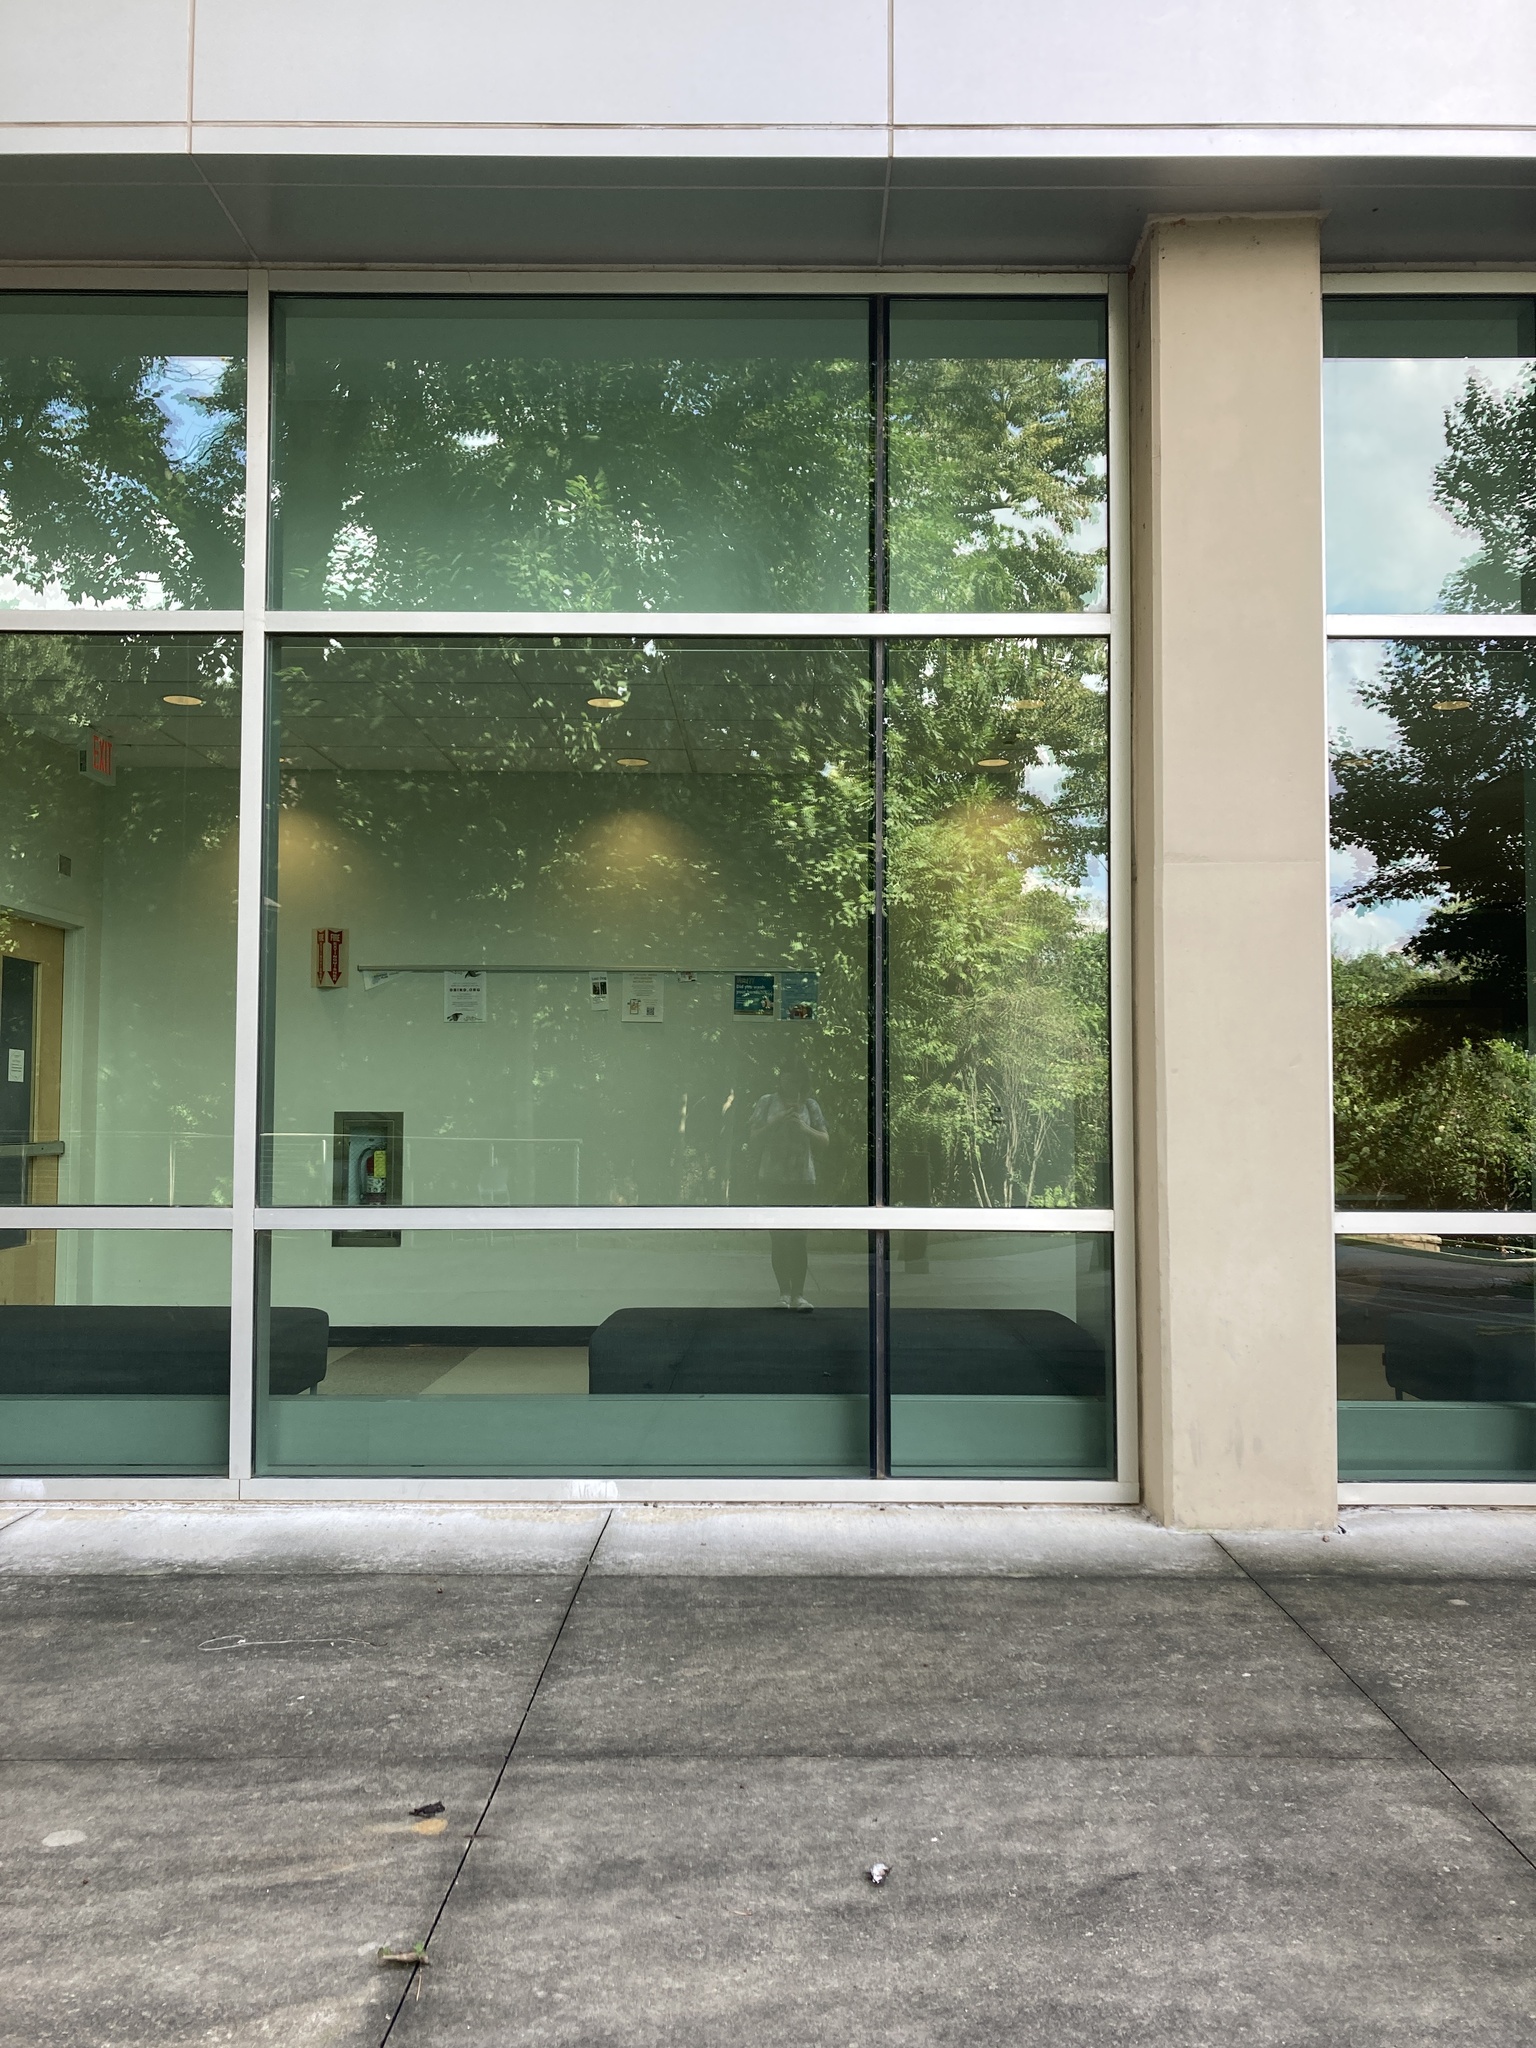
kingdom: Animalia
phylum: Chordata
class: Aves
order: Apodiformes
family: Trochilidae
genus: Archilochus
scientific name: Archilochus colubris
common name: Ruby-throated hummingbird
